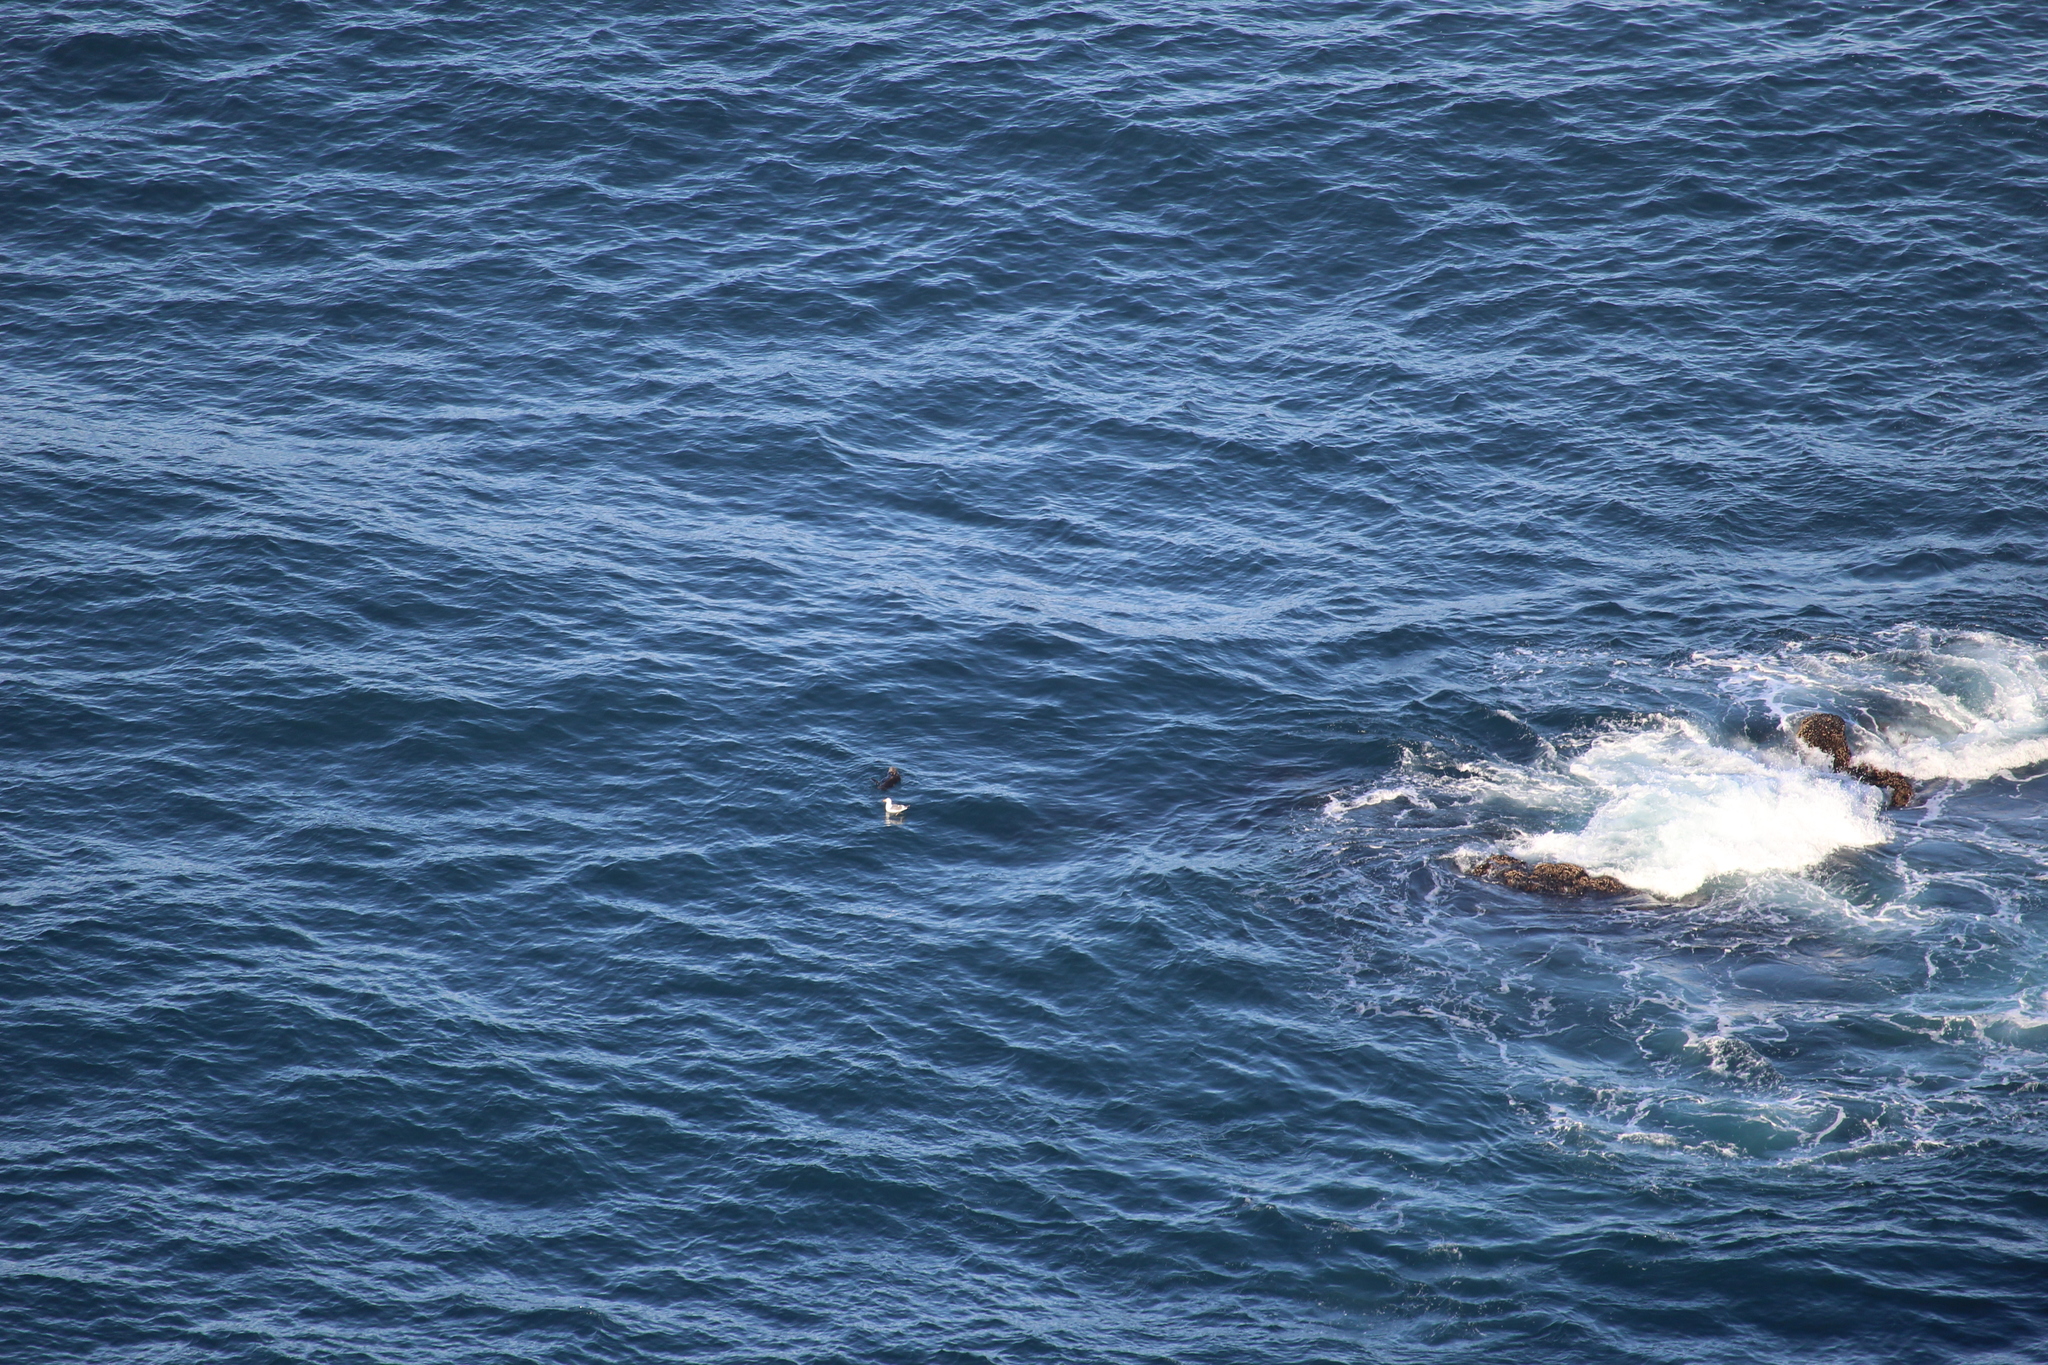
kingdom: Animalia
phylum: Chordata
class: Mammalia
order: Carnivora
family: Mustelidae
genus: Enhydra
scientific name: Enhydra lutris
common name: Sea otter
